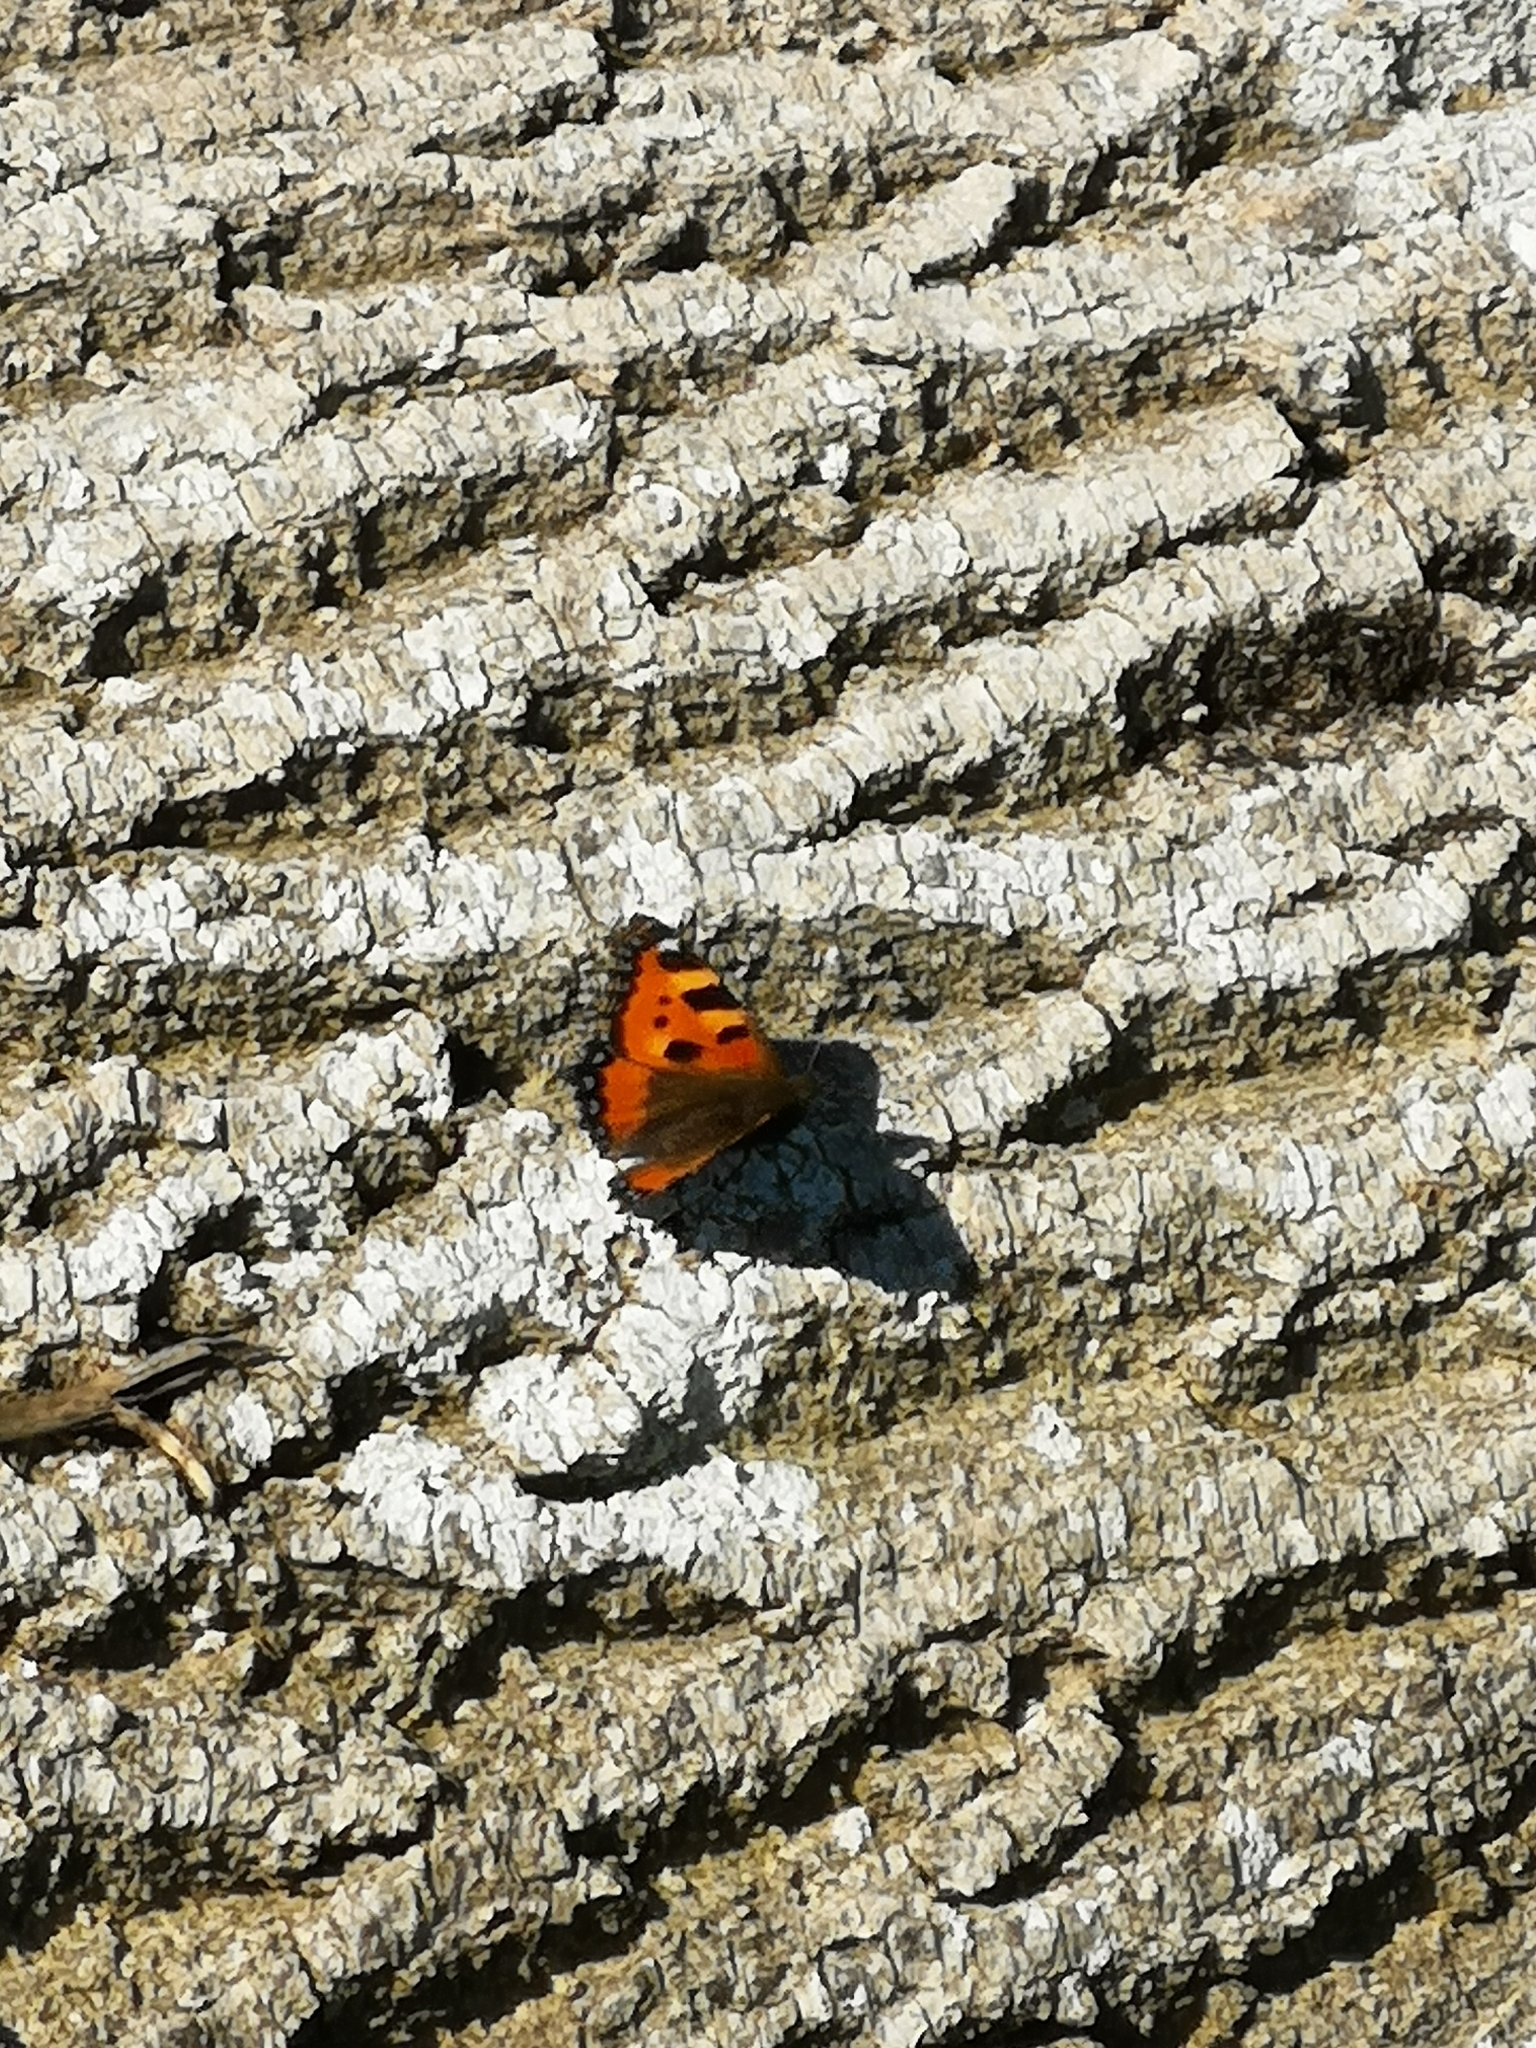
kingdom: Animalia
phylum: Arthropoda
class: Insecta
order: Lepidoptera
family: Nymphalidae
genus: Aglais
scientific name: Aglais urticae
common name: Small tortoiseshell
